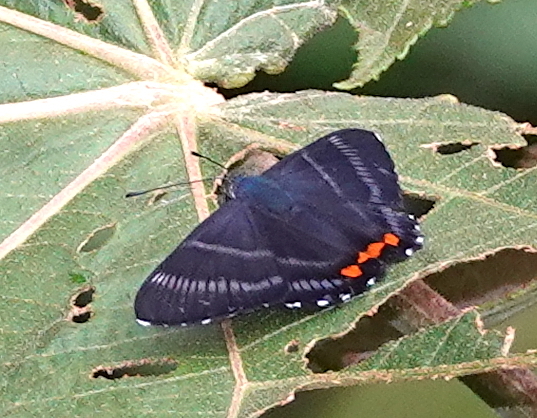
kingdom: Animalia
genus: Siseme
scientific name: Siseme aristoteles
